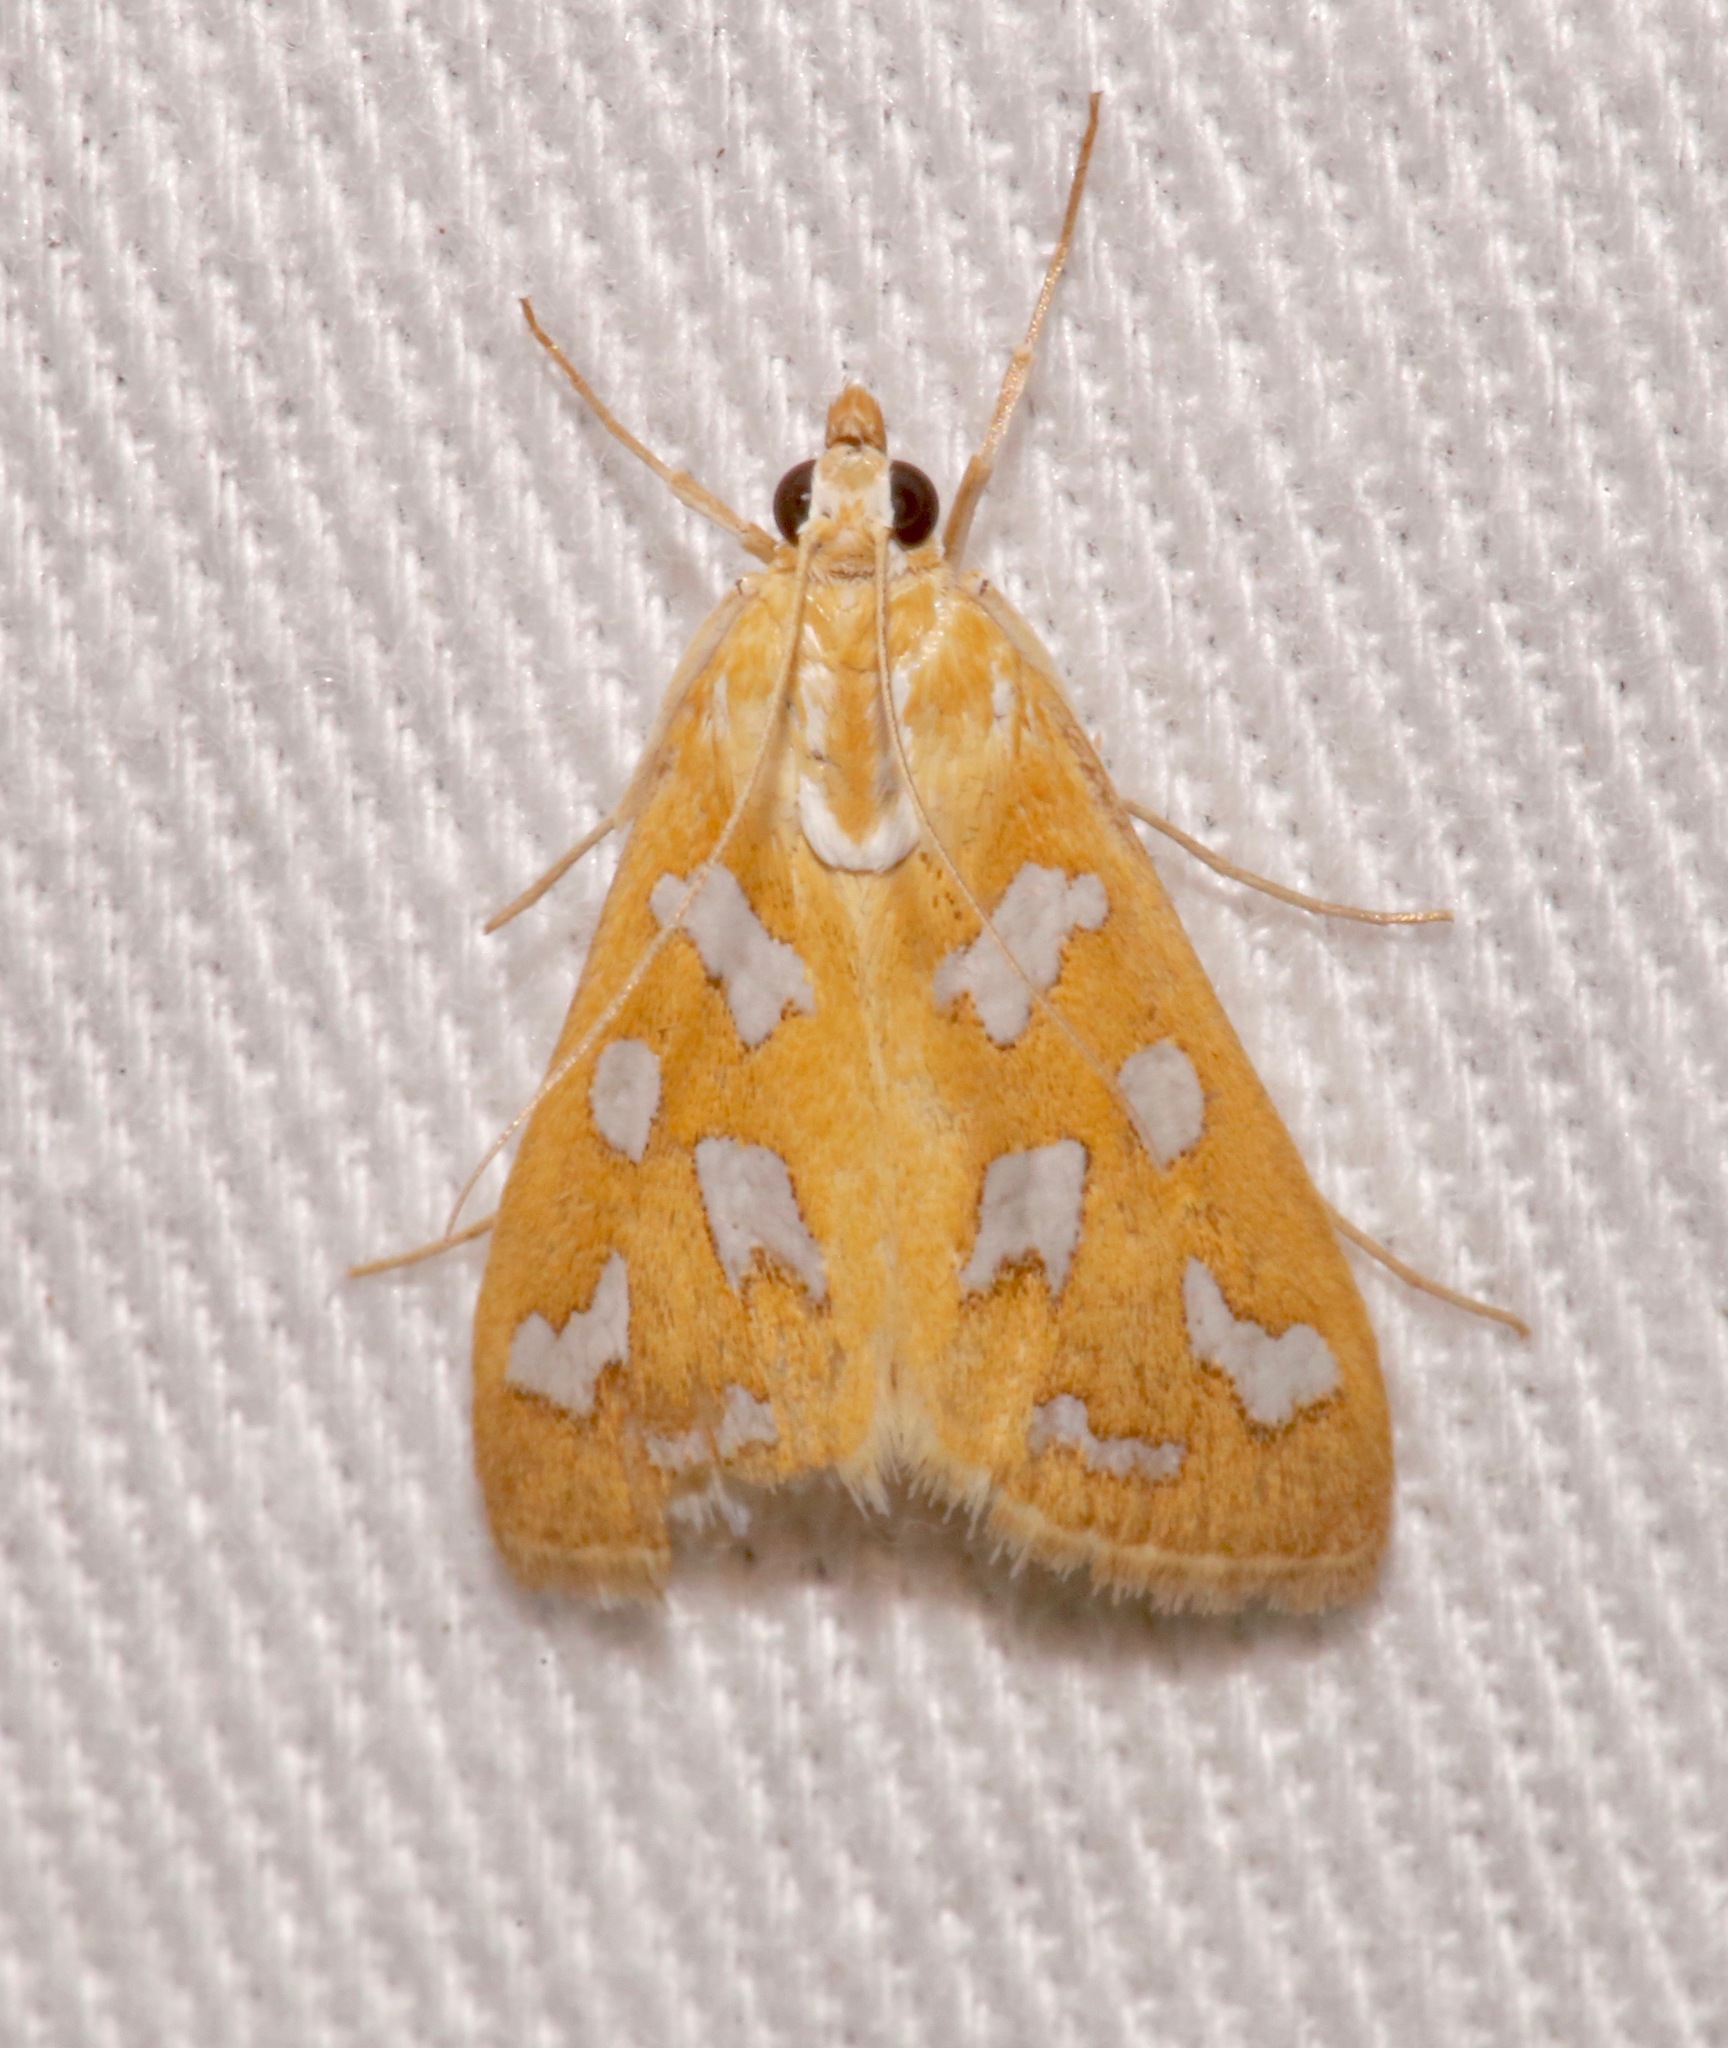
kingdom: Animalia
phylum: Arthropoda
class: Insecta
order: Lepidoptera
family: Crambidae
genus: Diastictis
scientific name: Diastictis sperryorum
